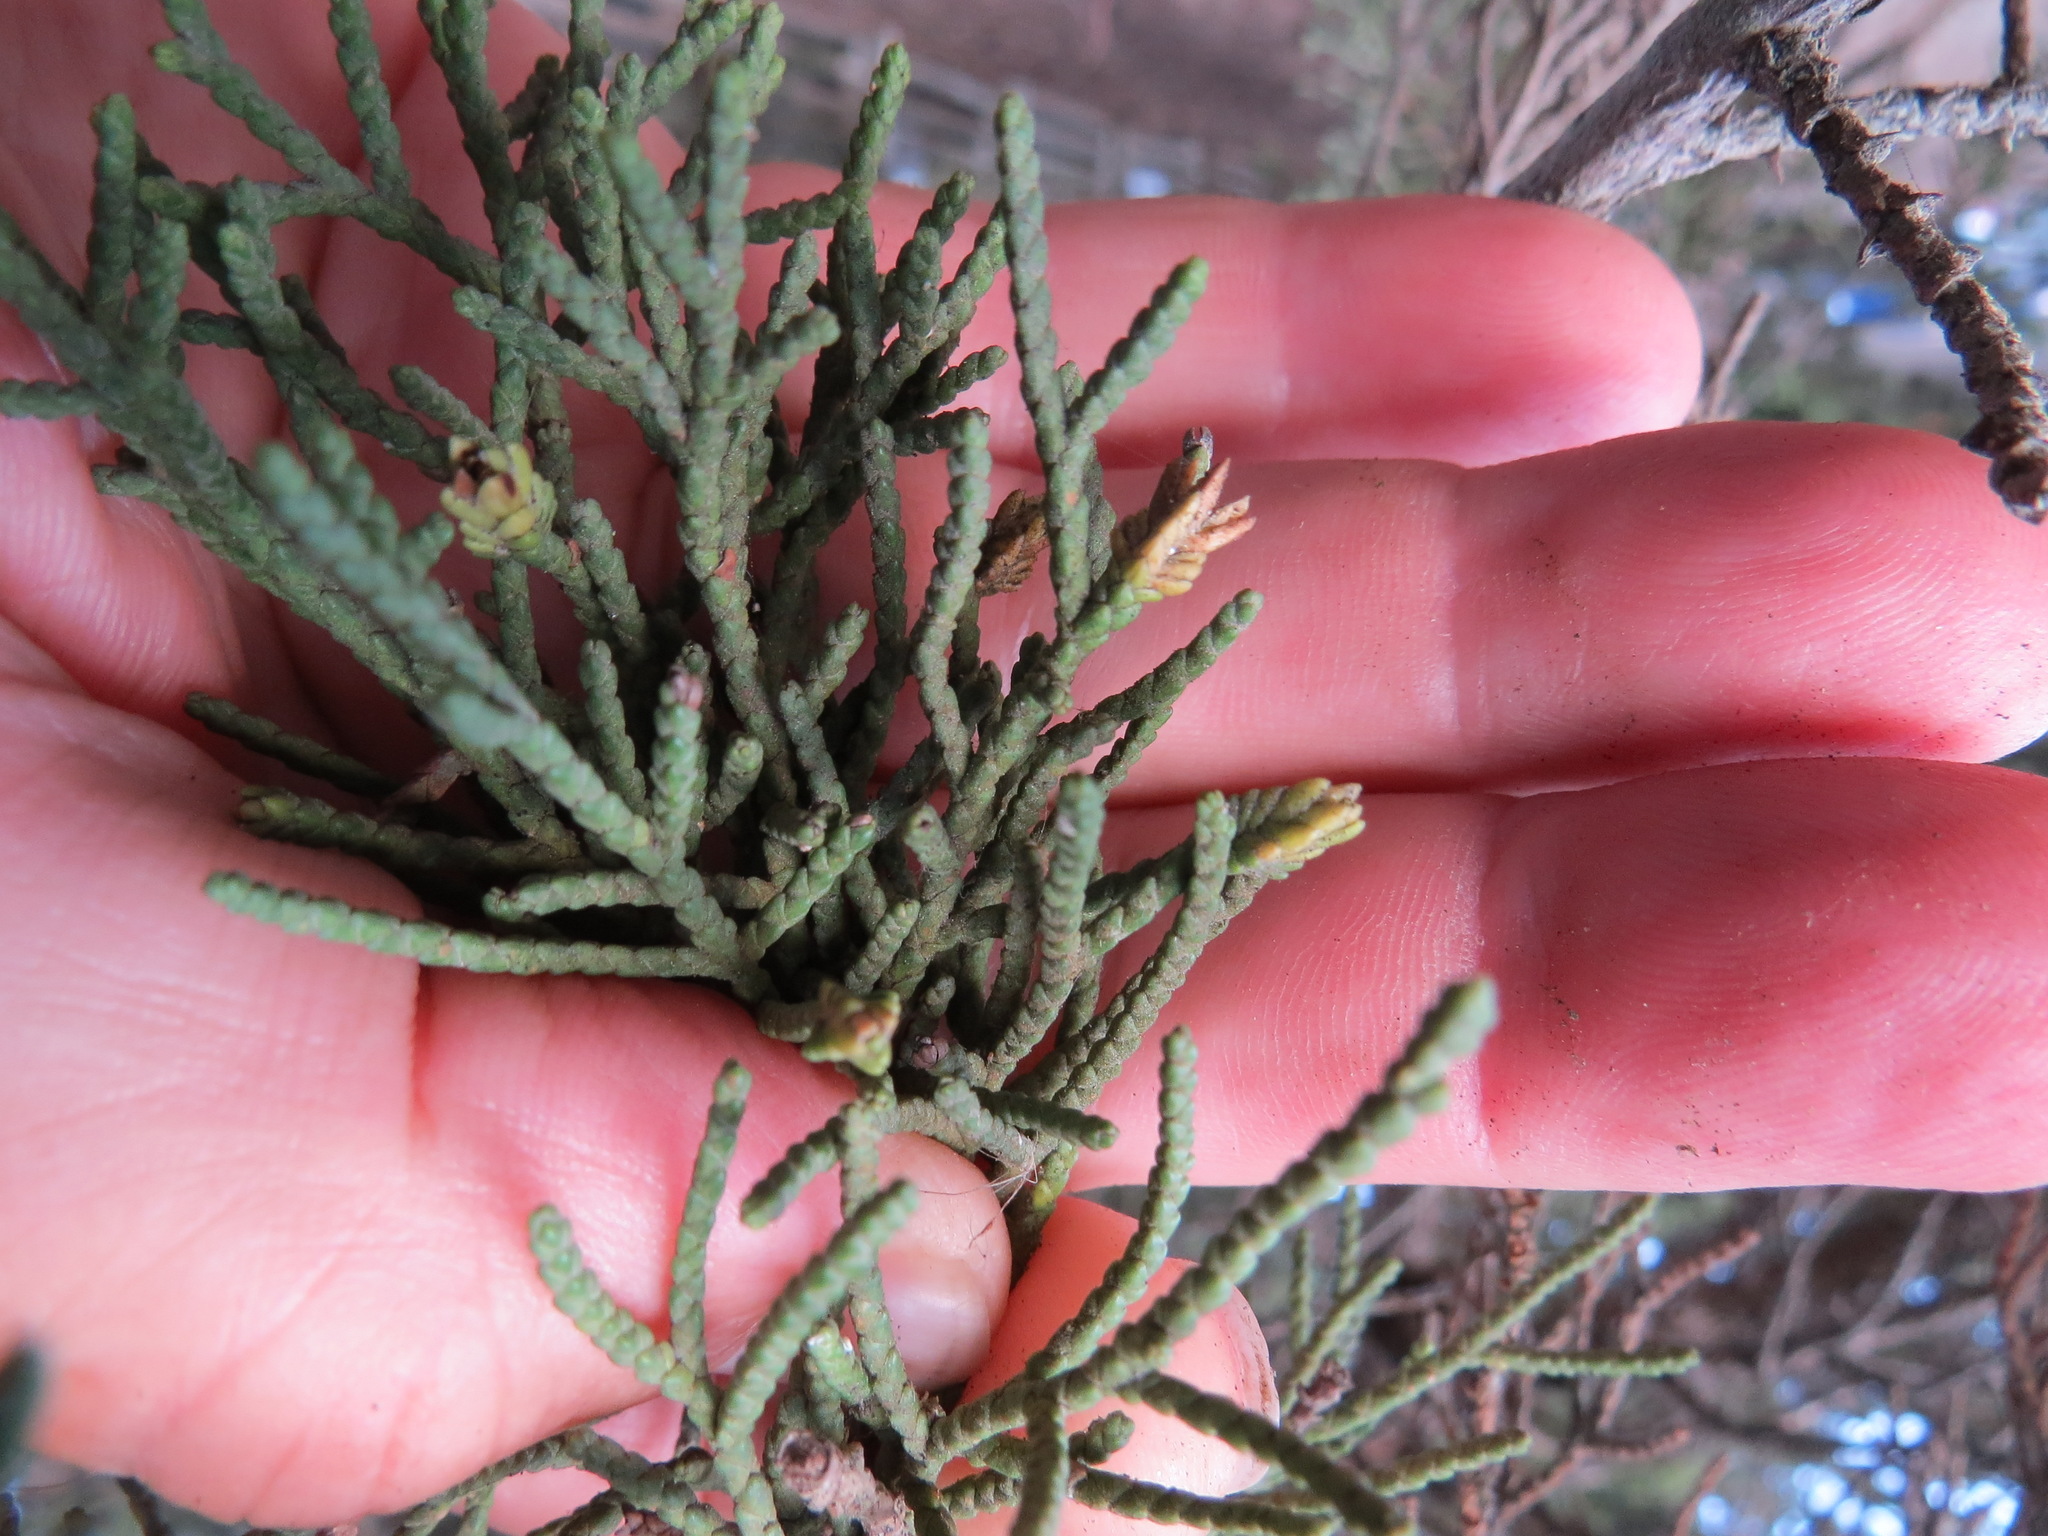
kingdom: Animalia
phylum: Arthropoda
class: Insecta
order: Diptera
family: Cecidomyiidae
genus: Oligotrophus
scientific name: Oligotrophus cupressi
